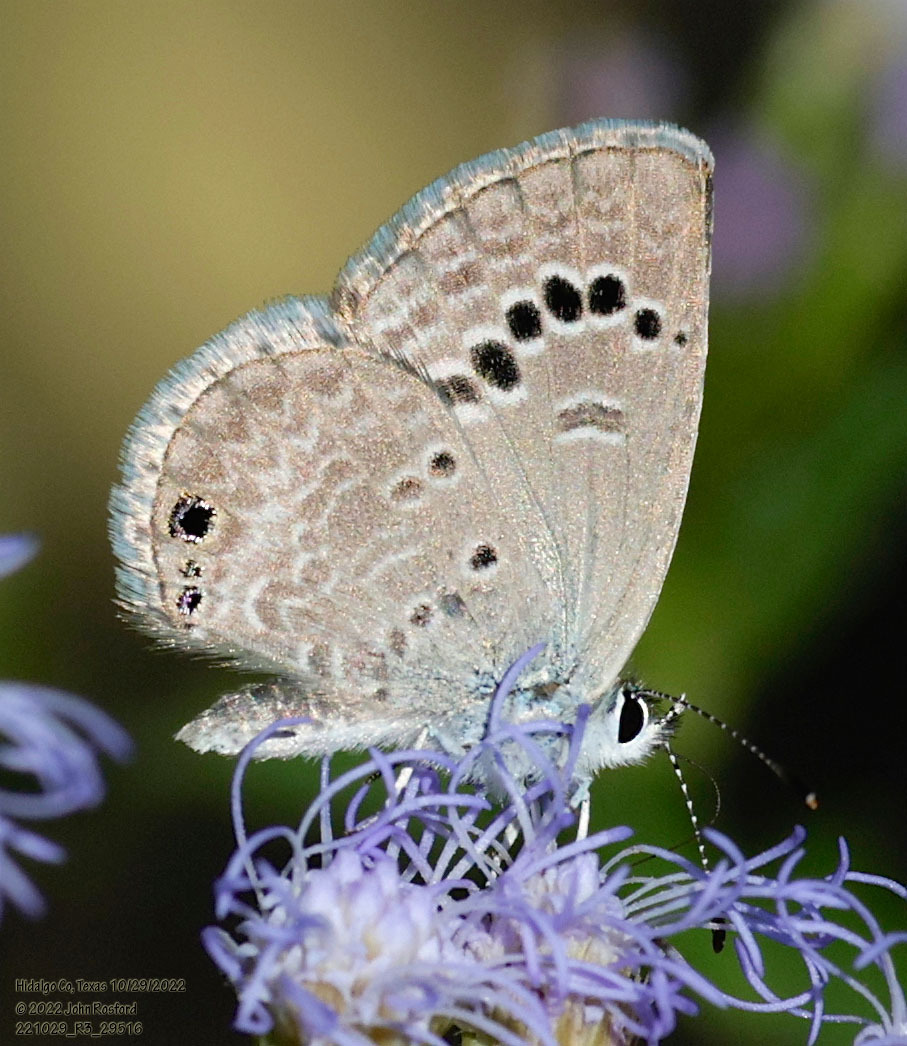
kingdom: Animalia
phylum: Arthropoda
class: Insecta
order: Lepidoptera
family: Lycaenidae
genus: Echinargus
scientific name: Echinargus isola
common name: Reakirt's blue
